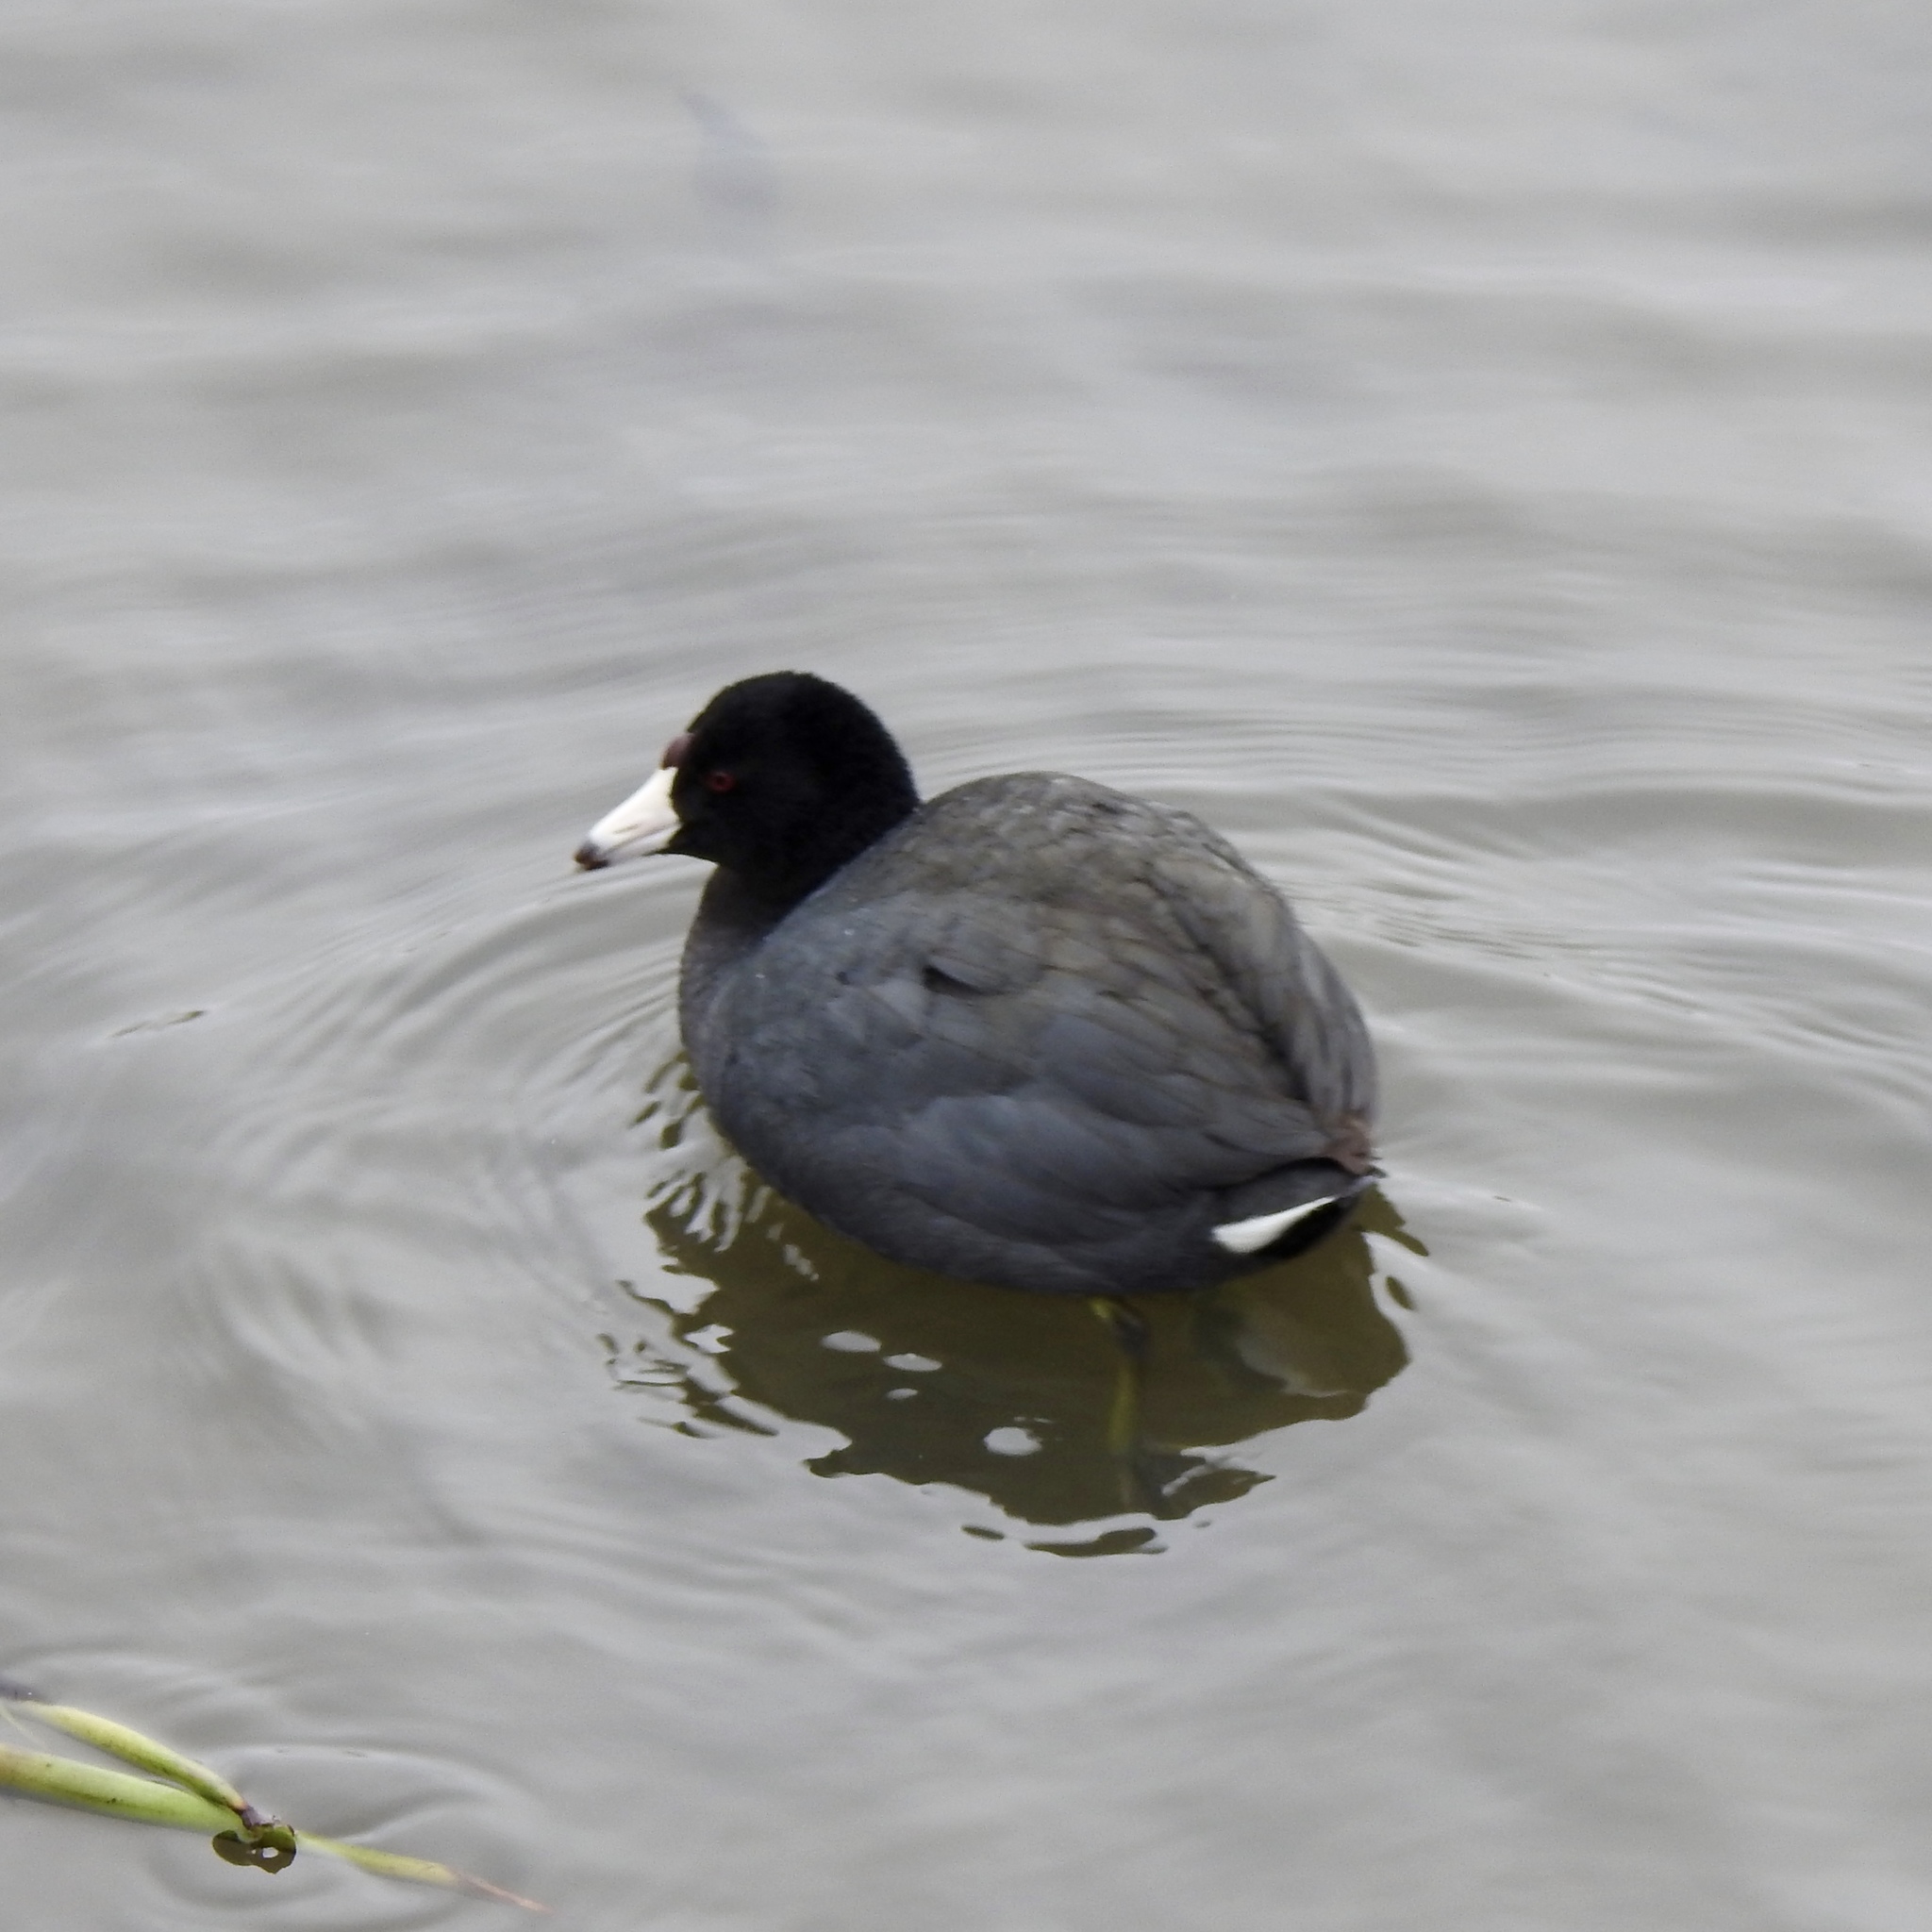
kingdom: Animalia
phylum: Chordata
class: Aves
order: Gruiformes
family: Rallidae
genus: Fulica
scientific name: Fulica americana
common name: American coot
